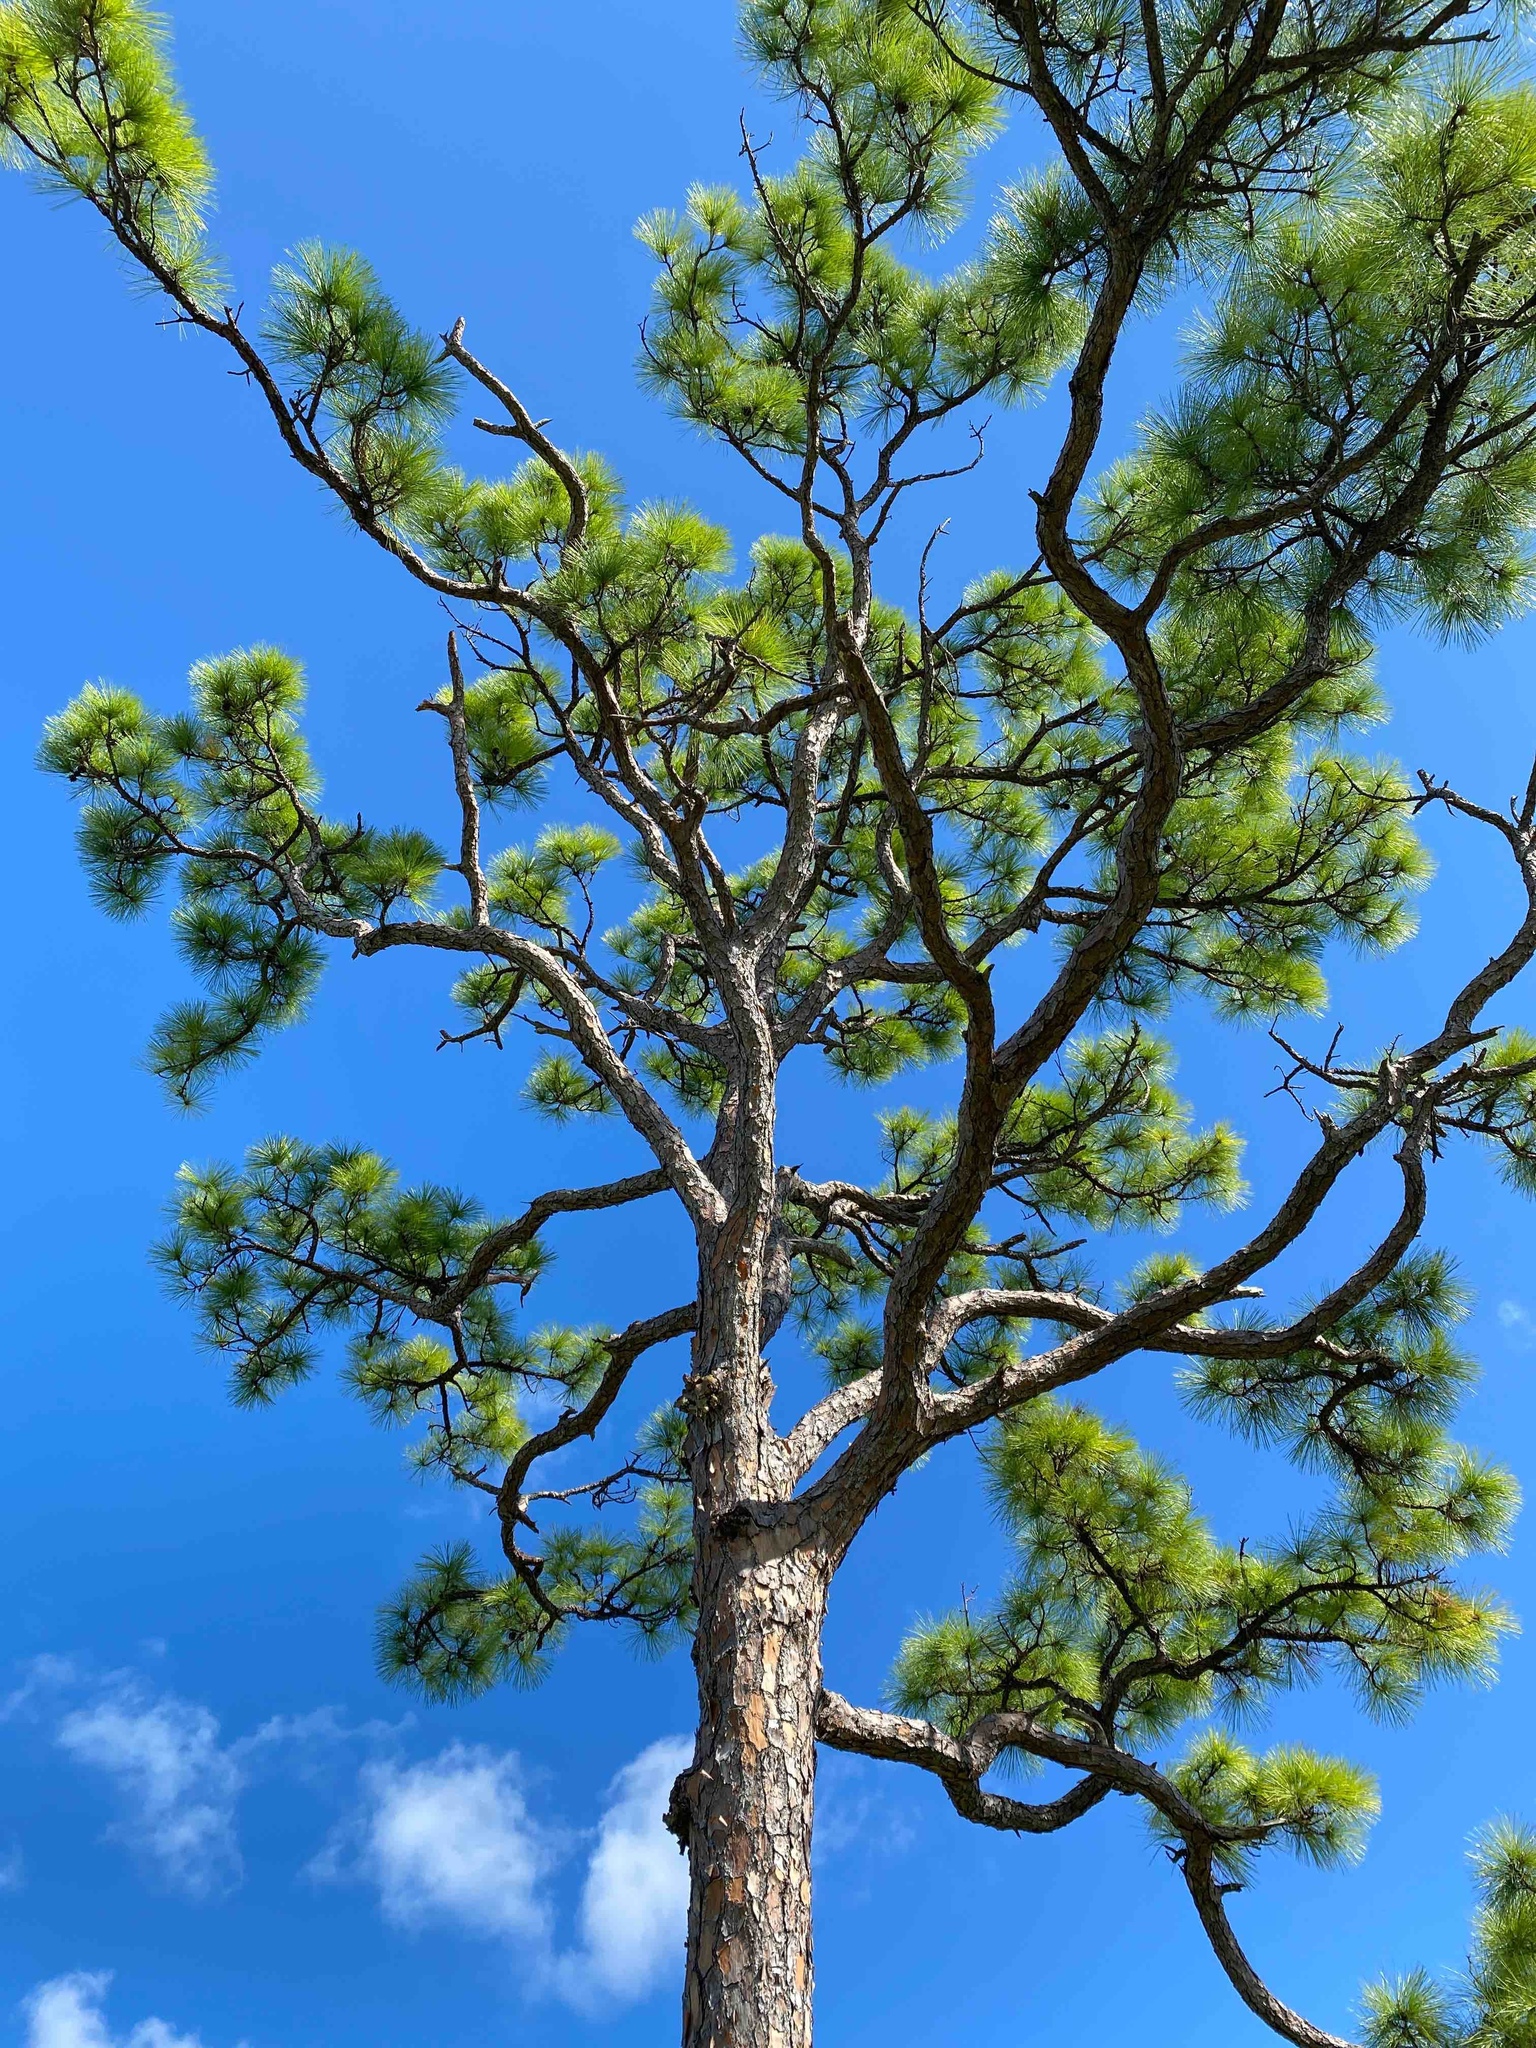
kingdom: Plantae
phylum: Tracheophyta
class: Pinopsida
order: Pinales
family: Pinaceae
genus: Pinus
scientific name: Pinus elliottii
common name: Slash pine
